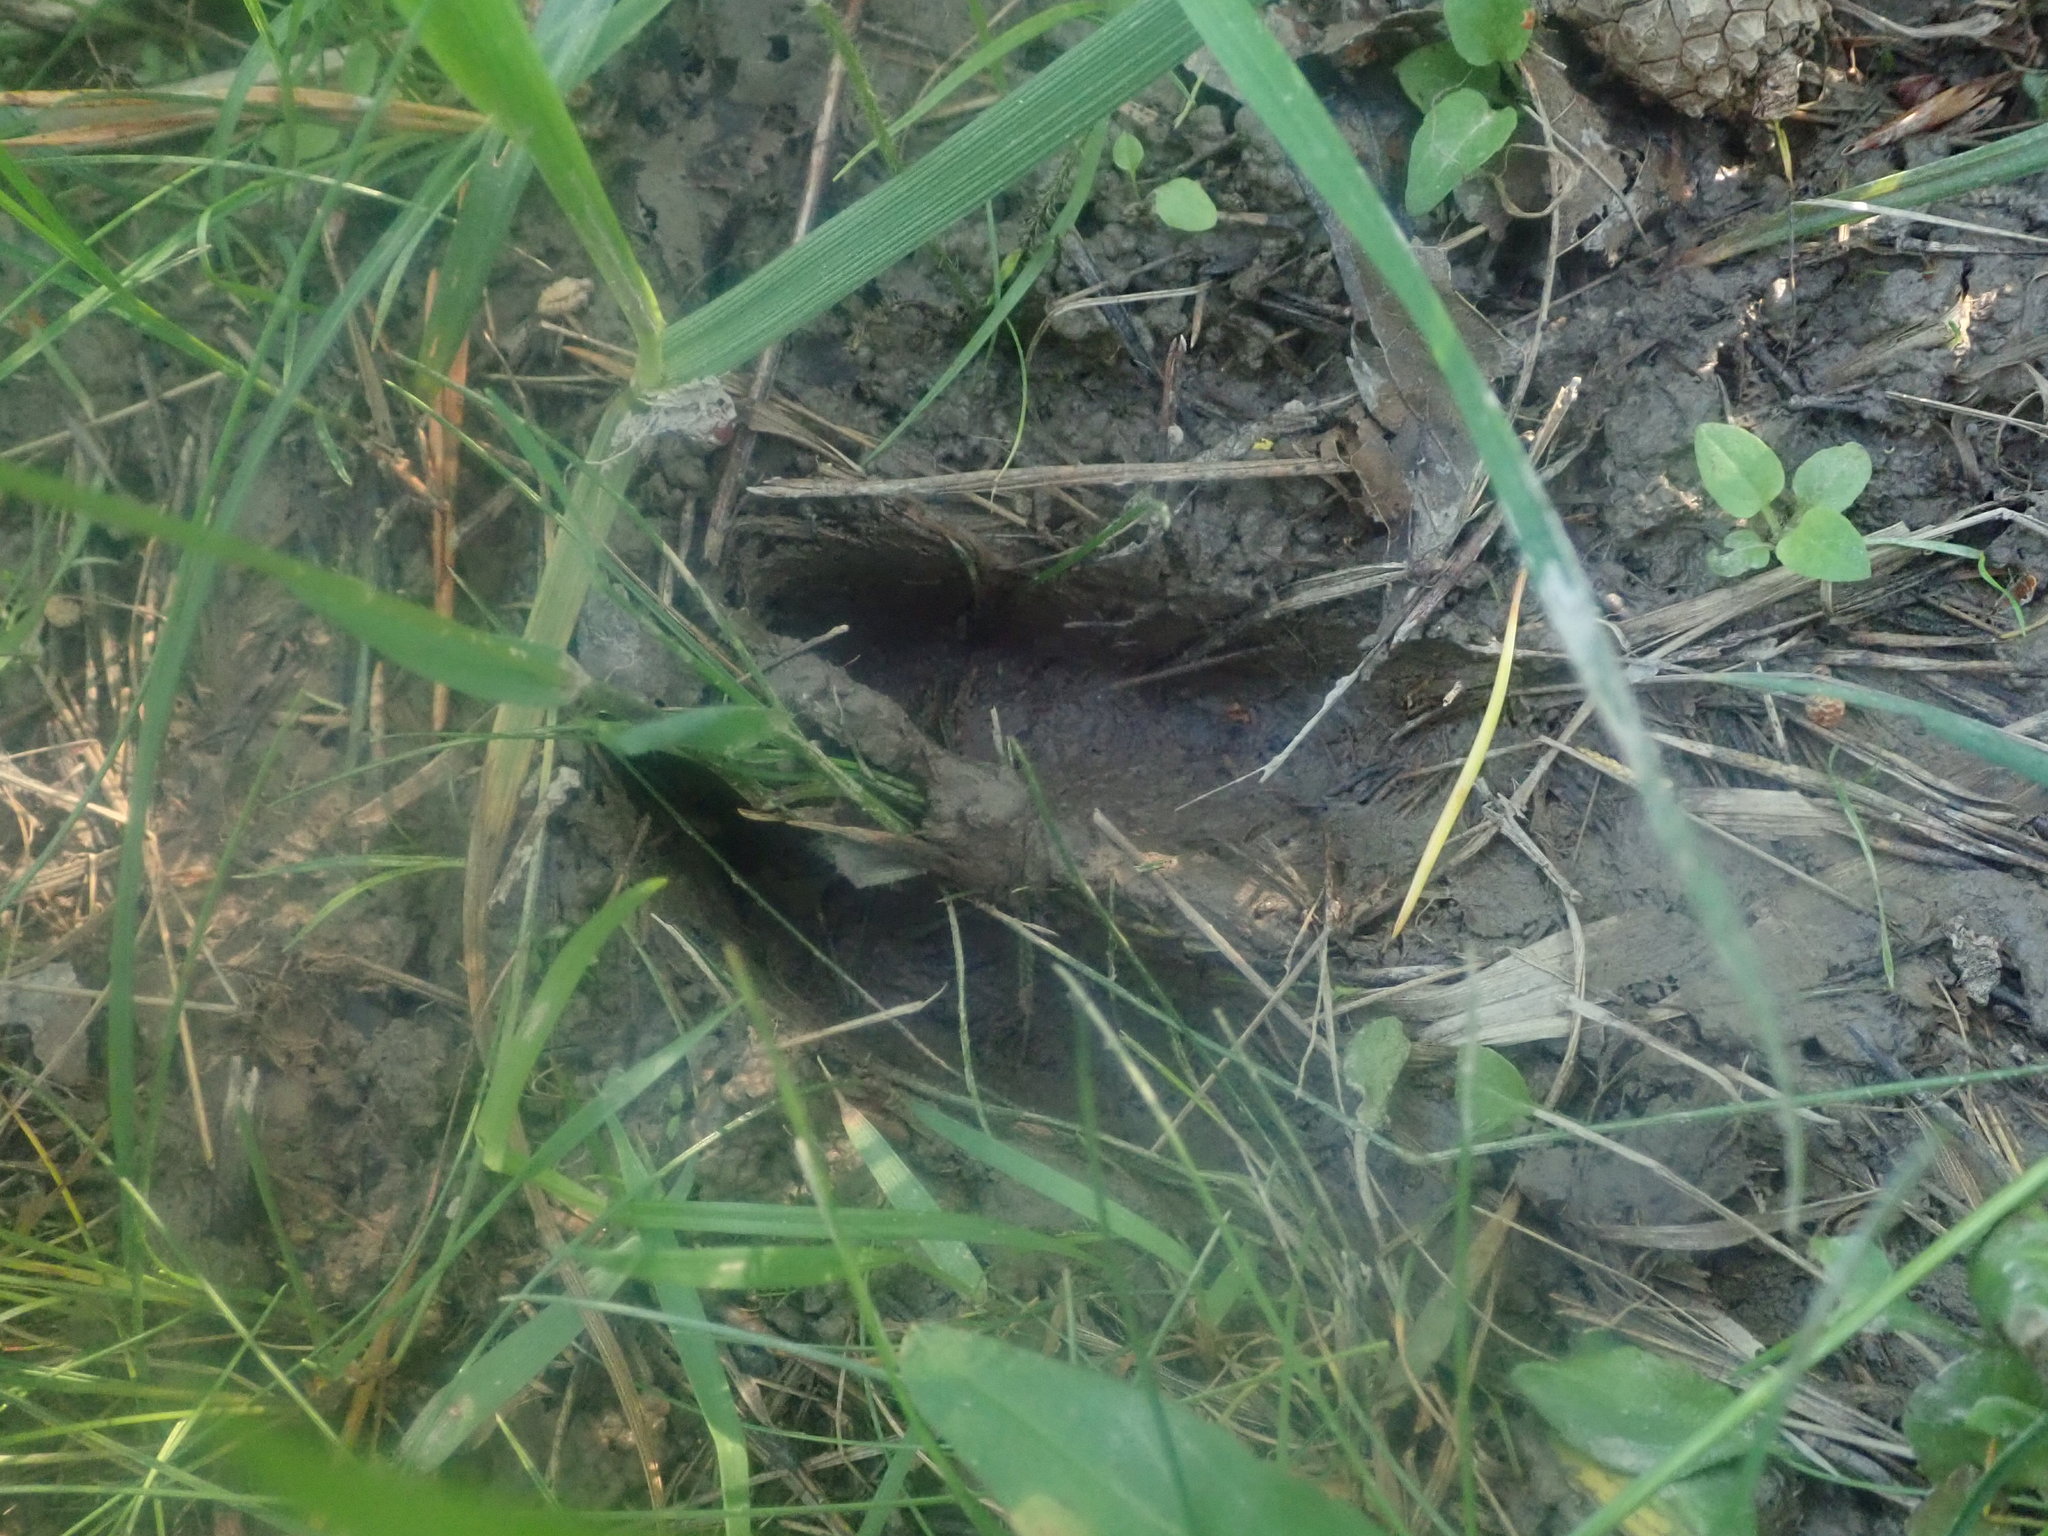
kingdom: Animalia
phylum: Chordata
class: Mammalia
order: Artiodactyla
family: Cervidae
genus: Odocoileus
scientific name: Odocoileus virginianus
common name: White-tailed deer
